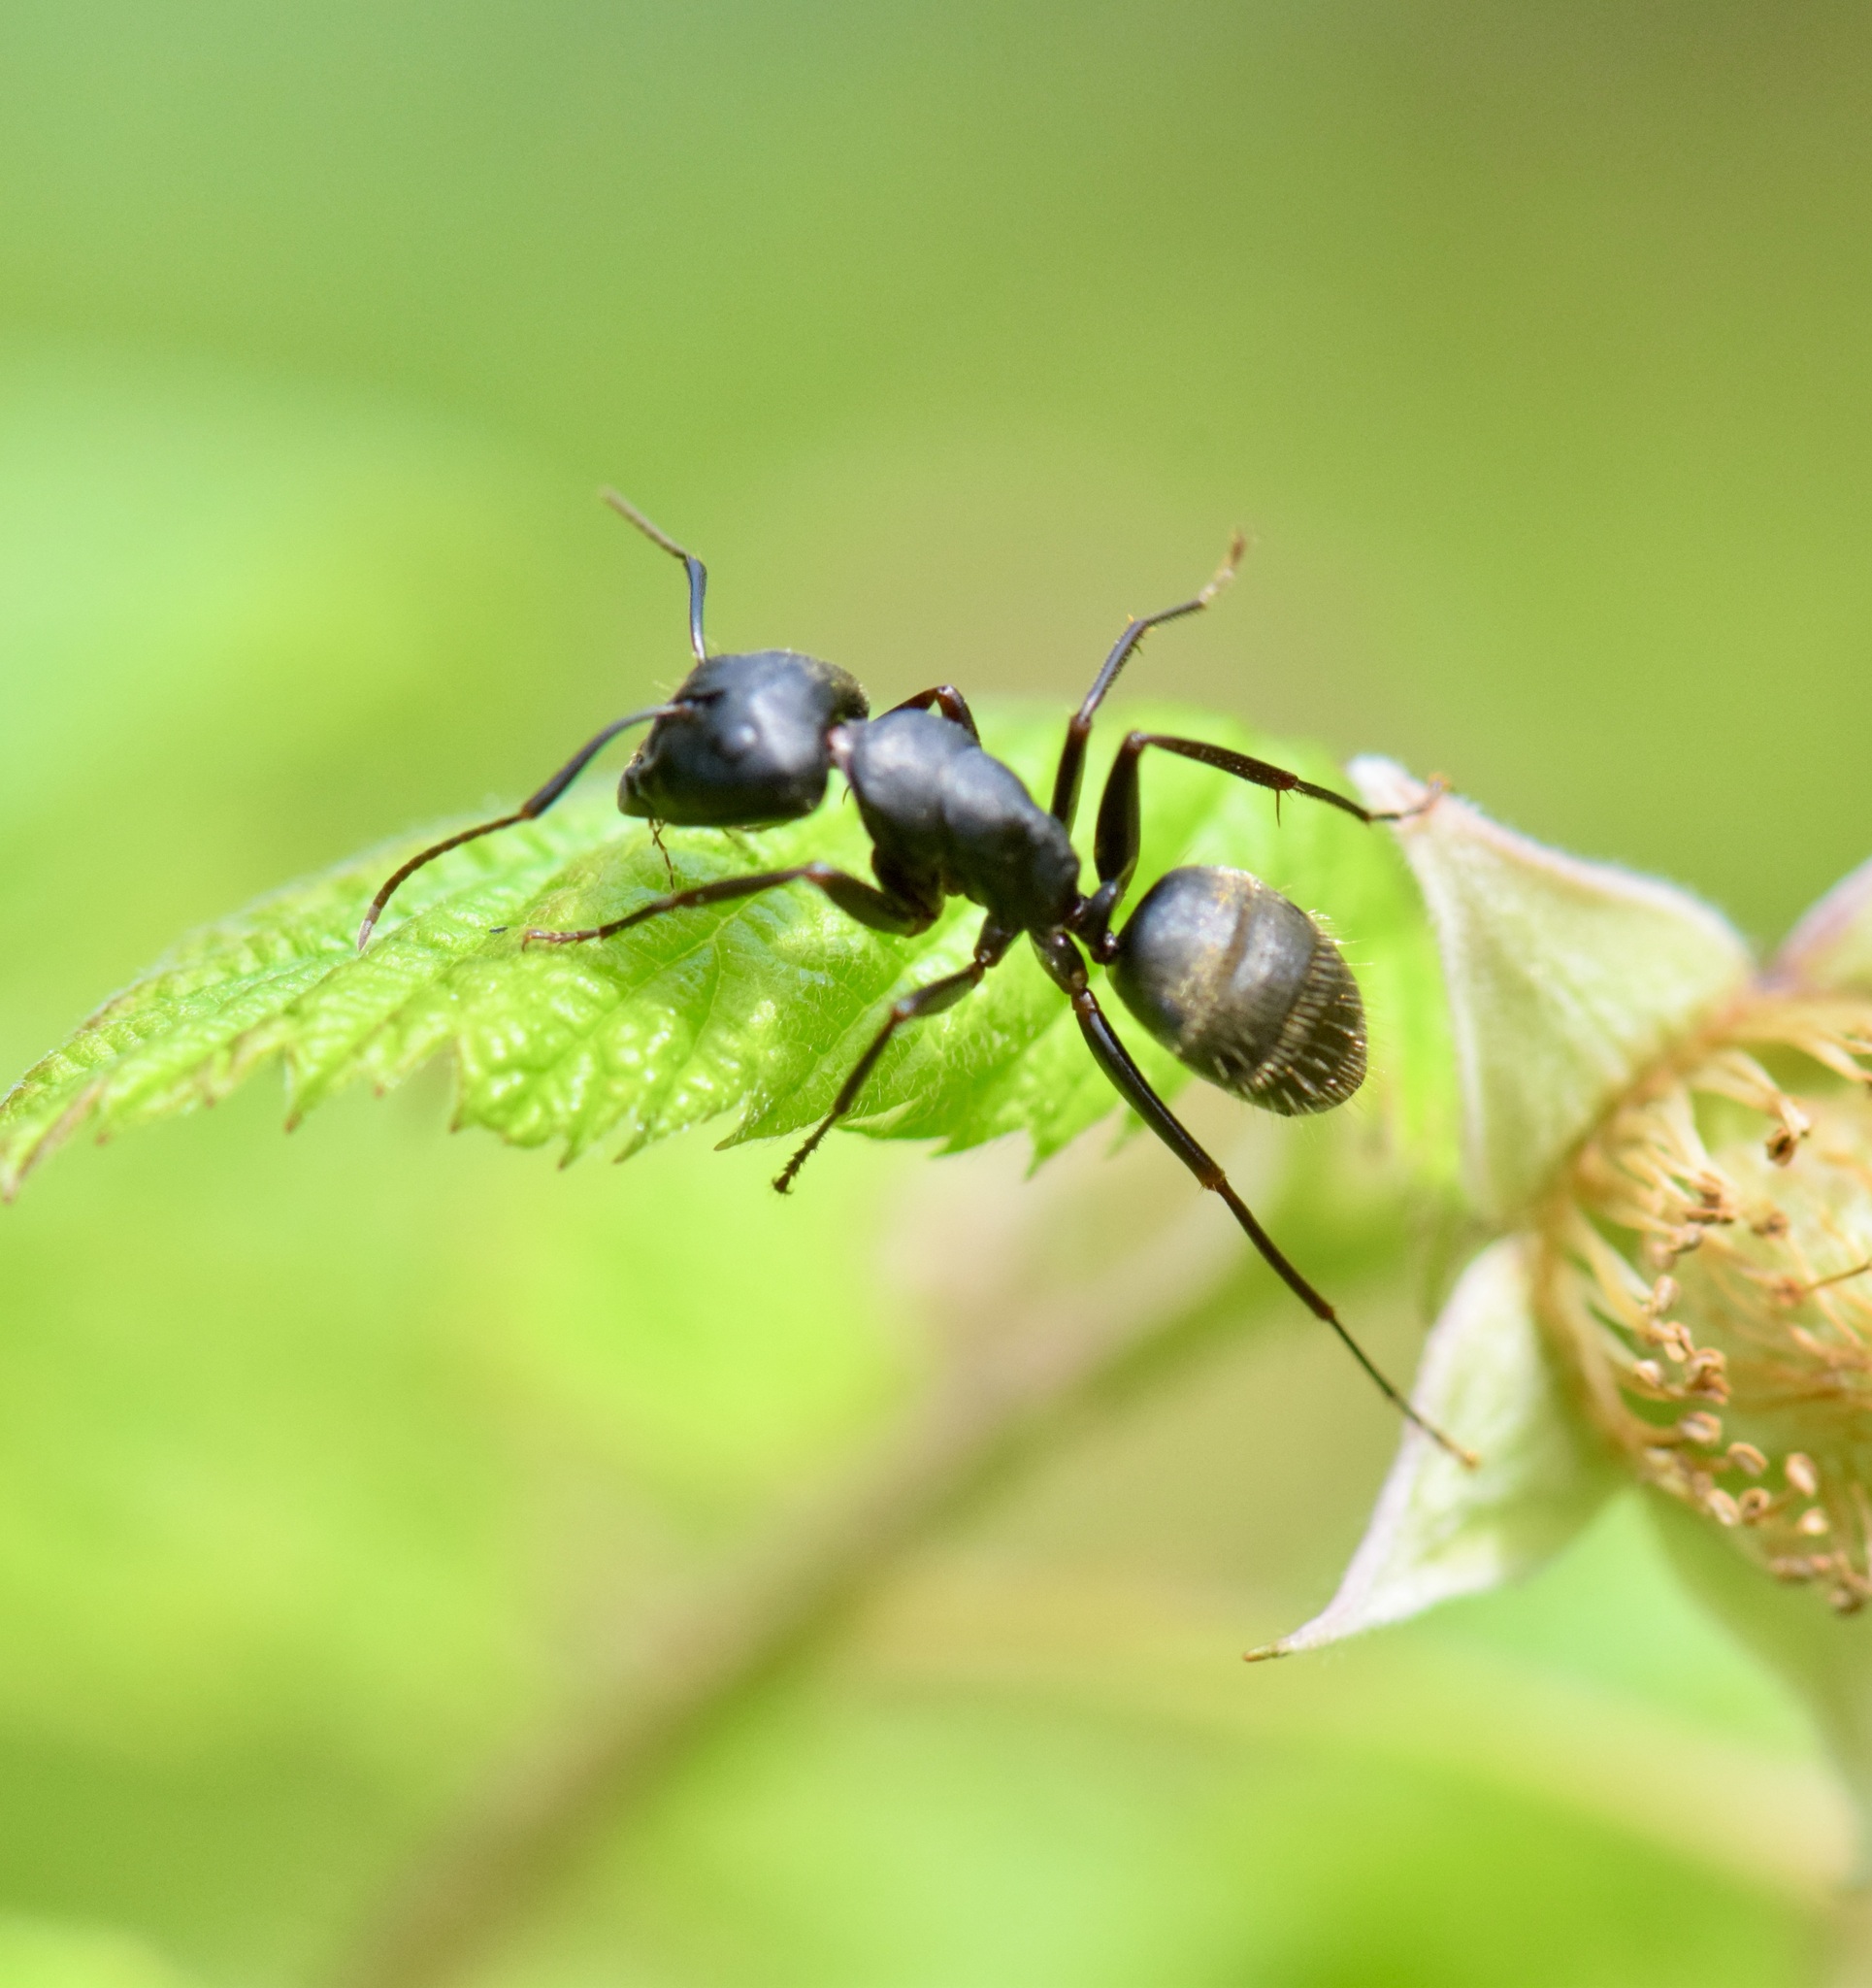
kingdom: Animalia
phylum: Arthropoda
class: Insecta
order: Hymenoptera
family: Formicidae
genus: Camponotus
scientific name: Camponotus pennsylvanicus
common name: Black carpenter ant
